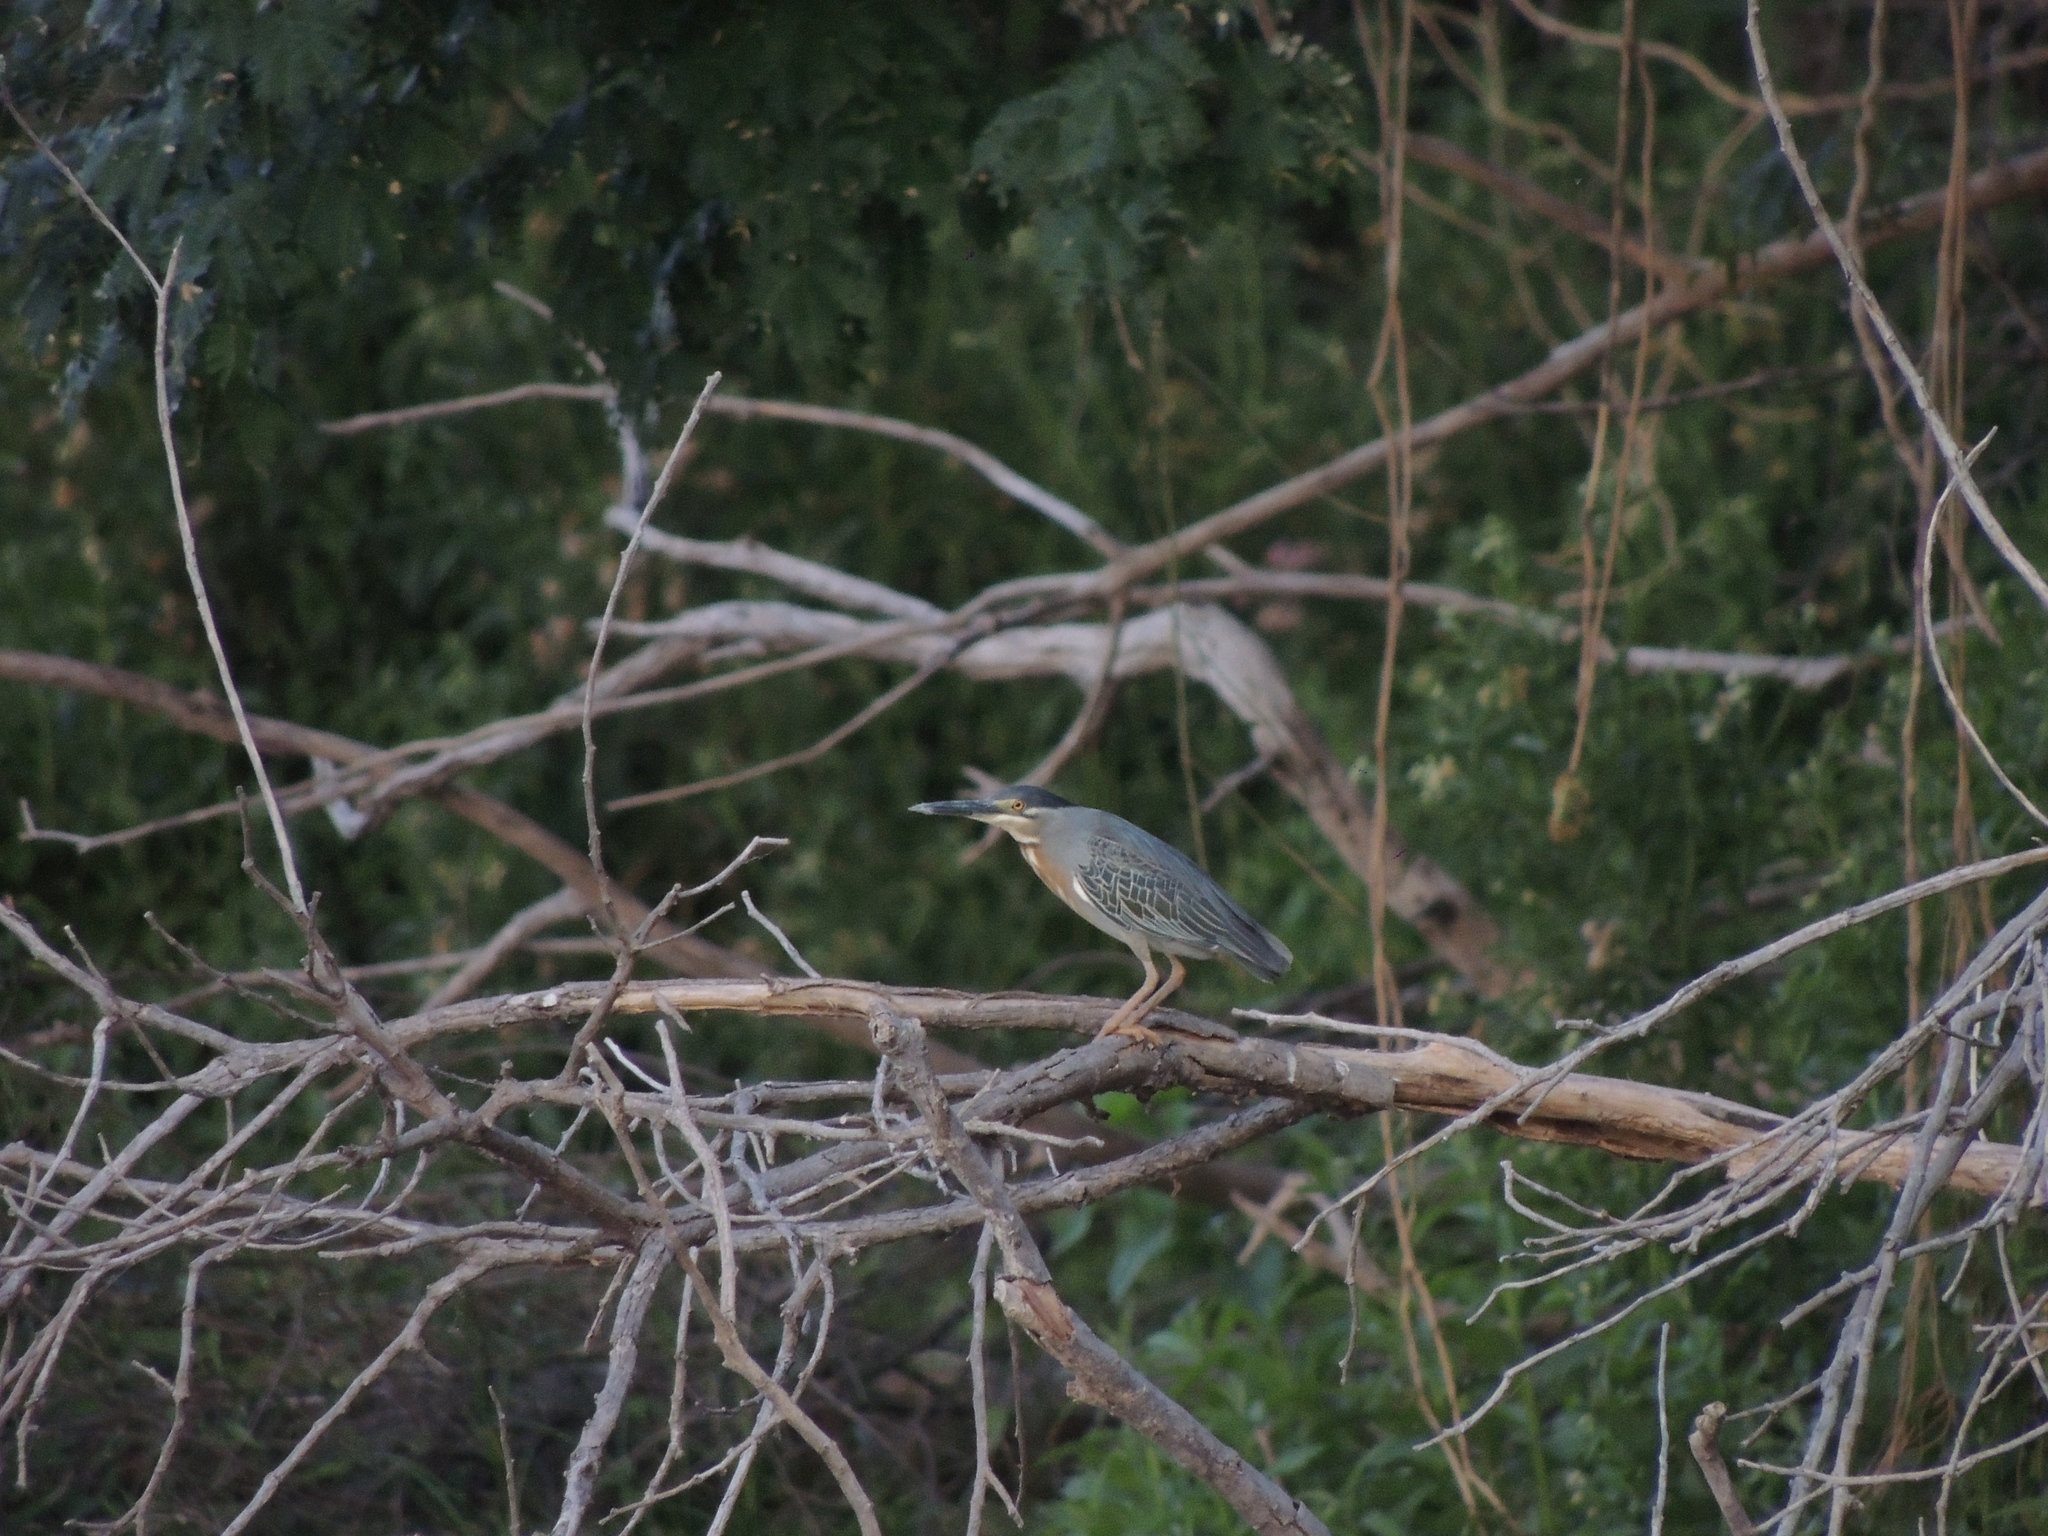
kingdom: Animalia
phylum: Chordata
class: Aves
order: Pelecaniformes
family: Ardeidae
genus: Butorides
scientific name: Butorides striata
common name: Striated heron
